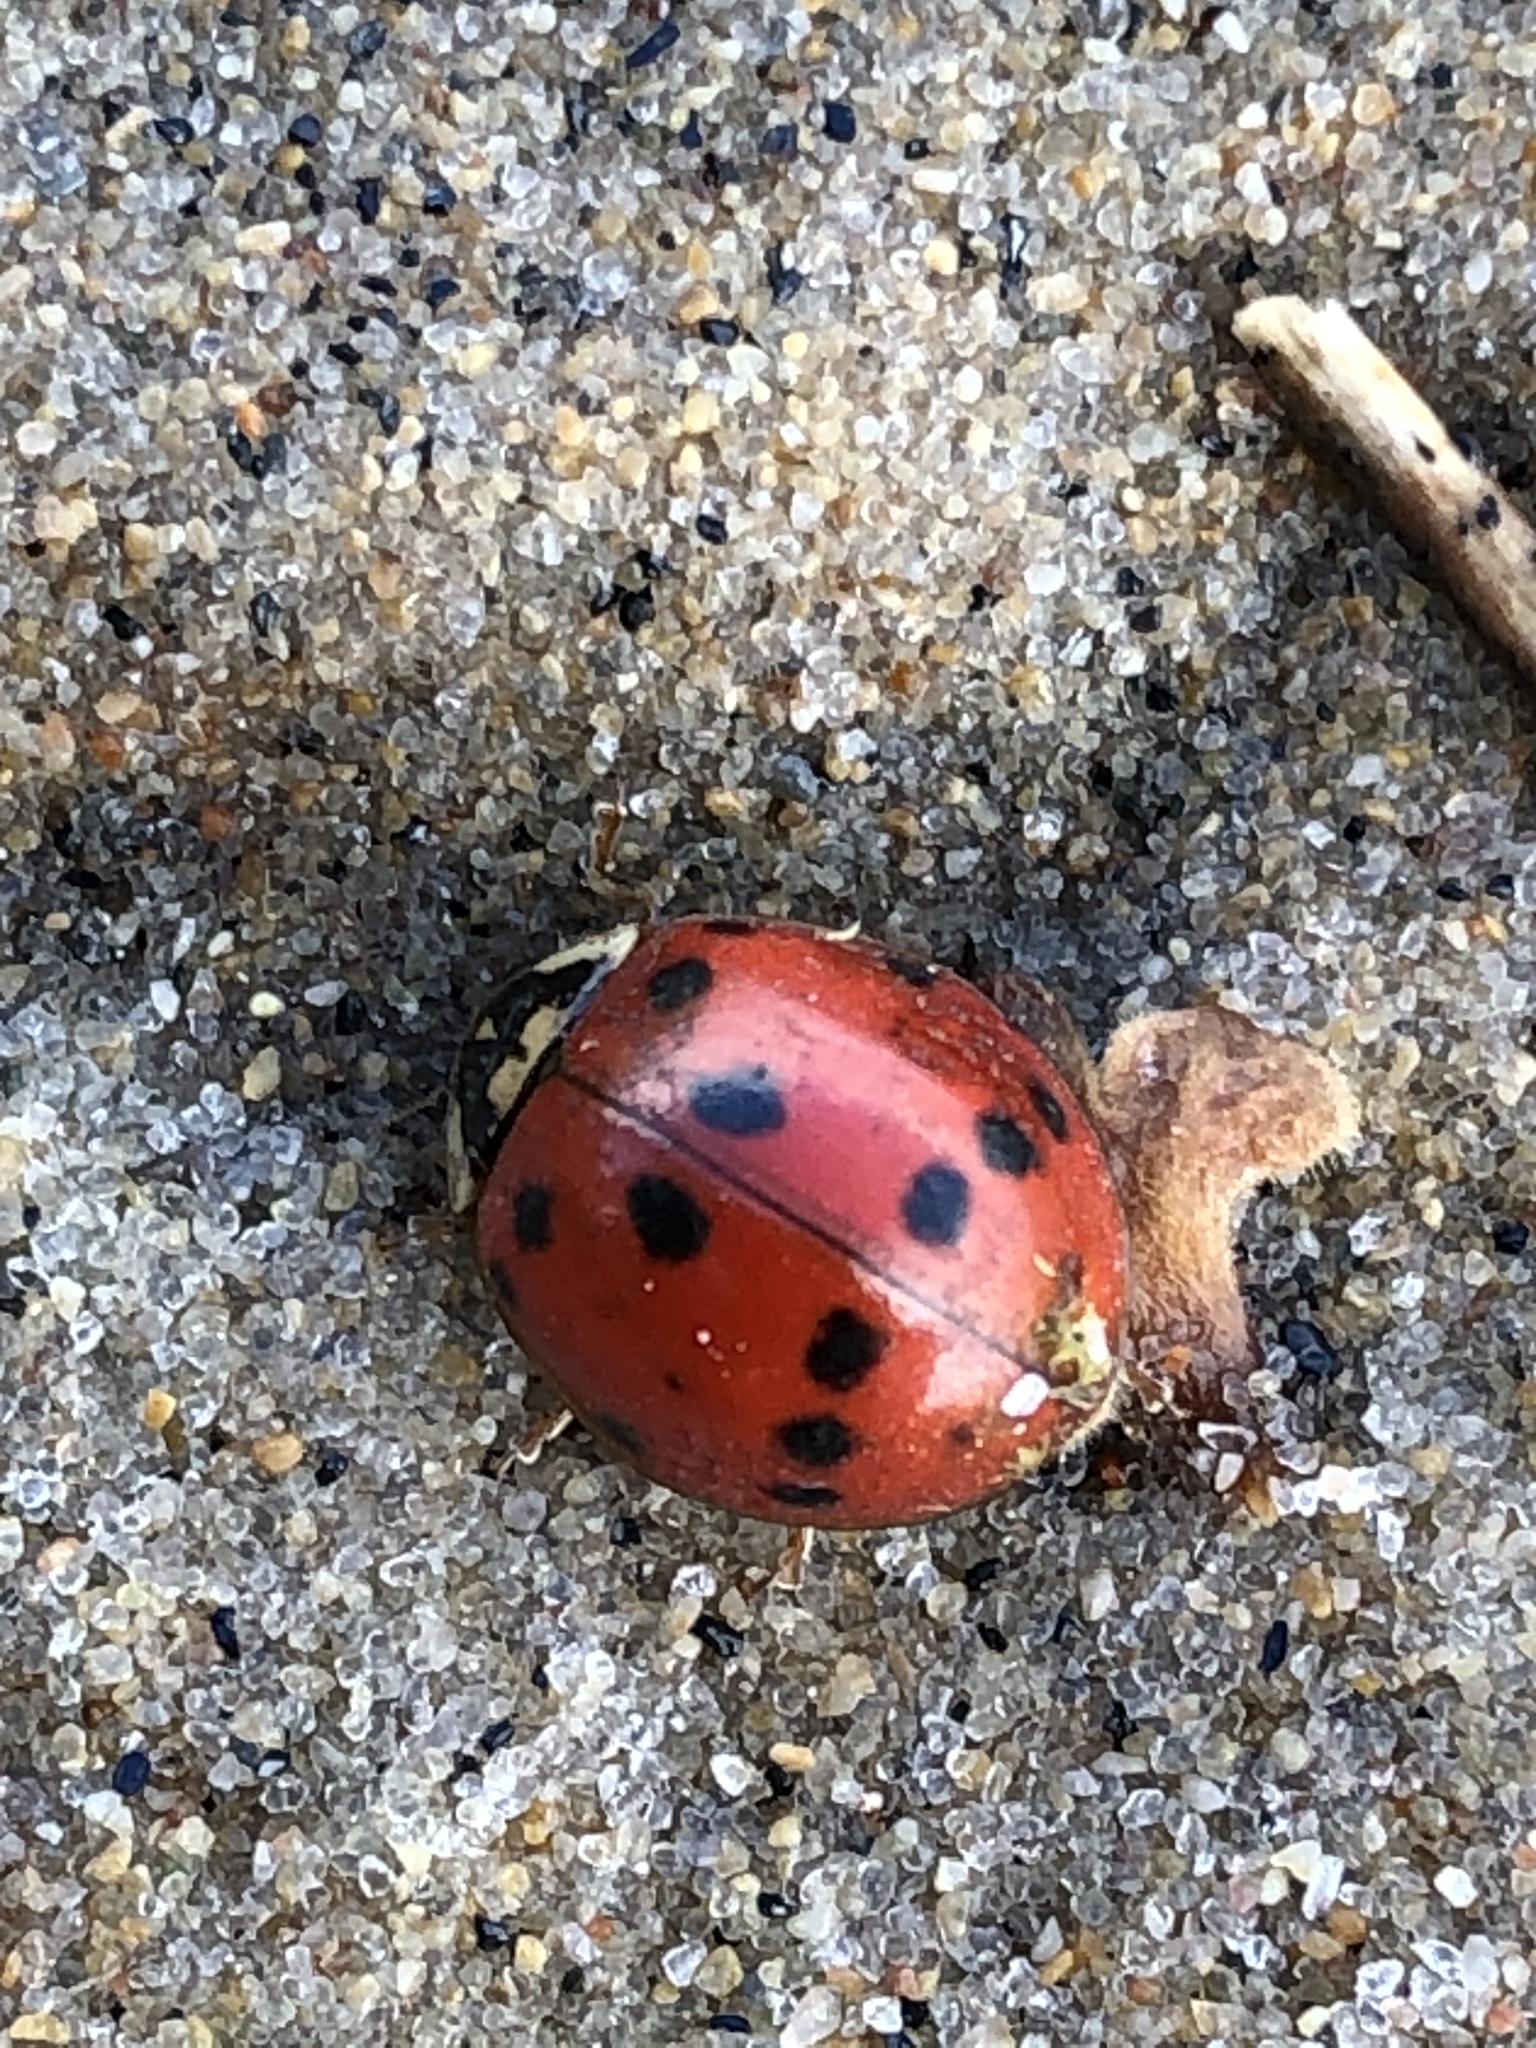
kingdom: Animalia
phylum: Arthropoda
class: Insecta
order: Coleoptera
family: Coccinellidae
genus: Harmonia
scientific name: Harmonia axyridis
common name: Harlequin ladybird
